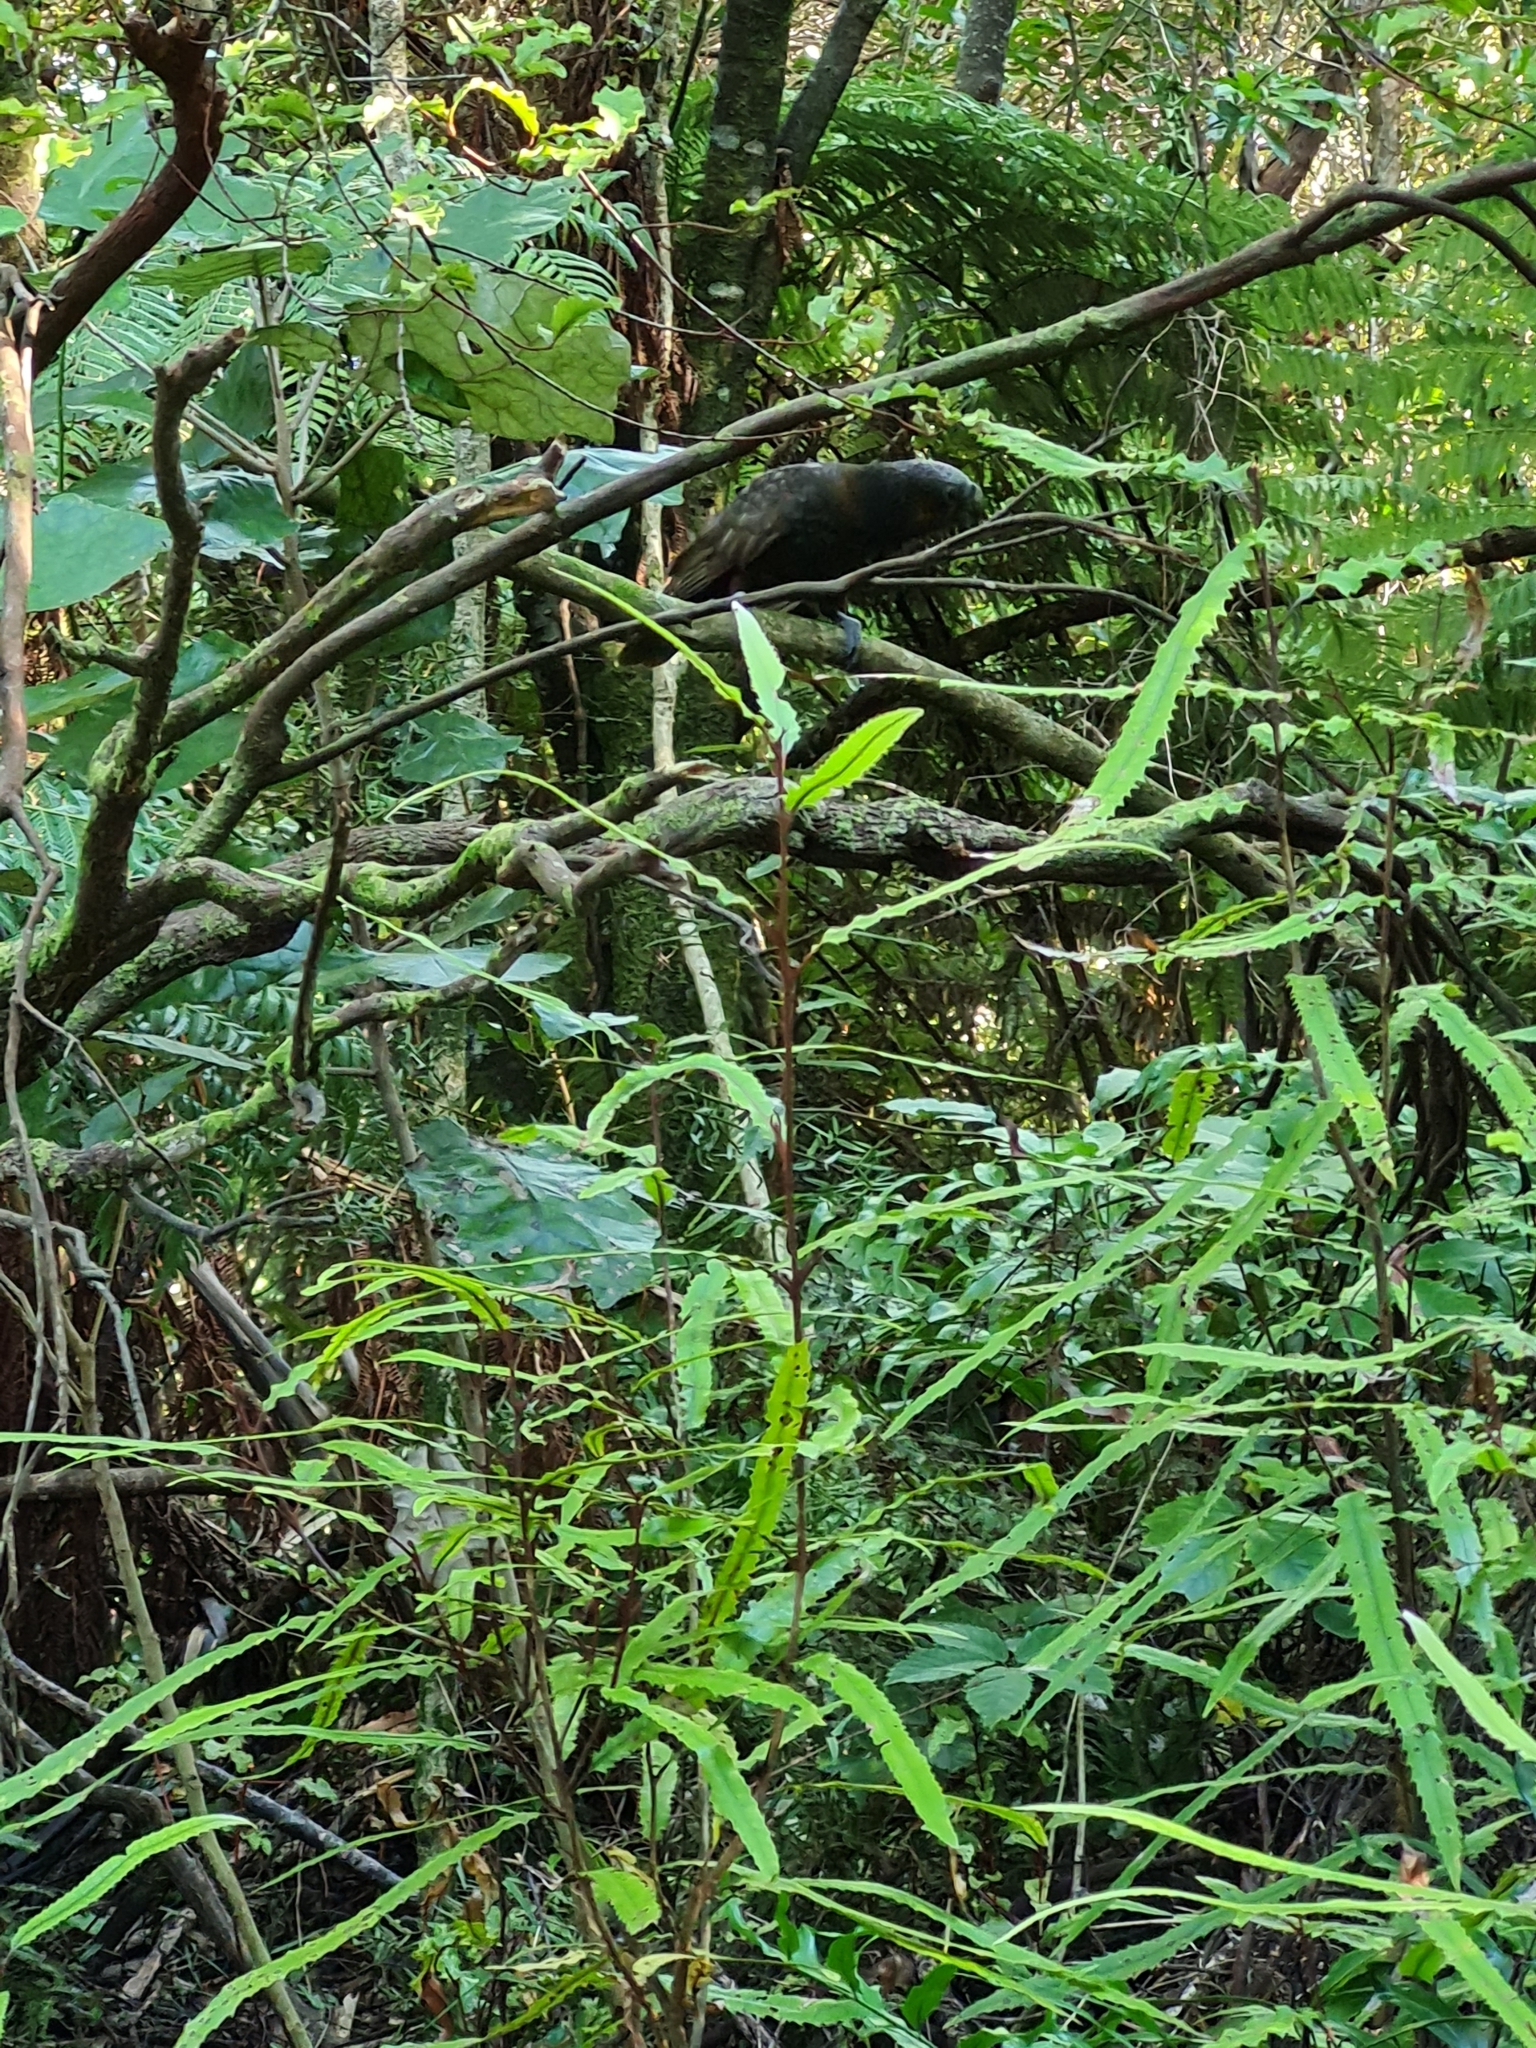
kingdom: Animalia
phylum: Chordata
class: Aves
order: Psittaciformes
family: Psittacidae
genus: Nestor
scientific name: Nestor meridionalis
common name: New zealand kaka
